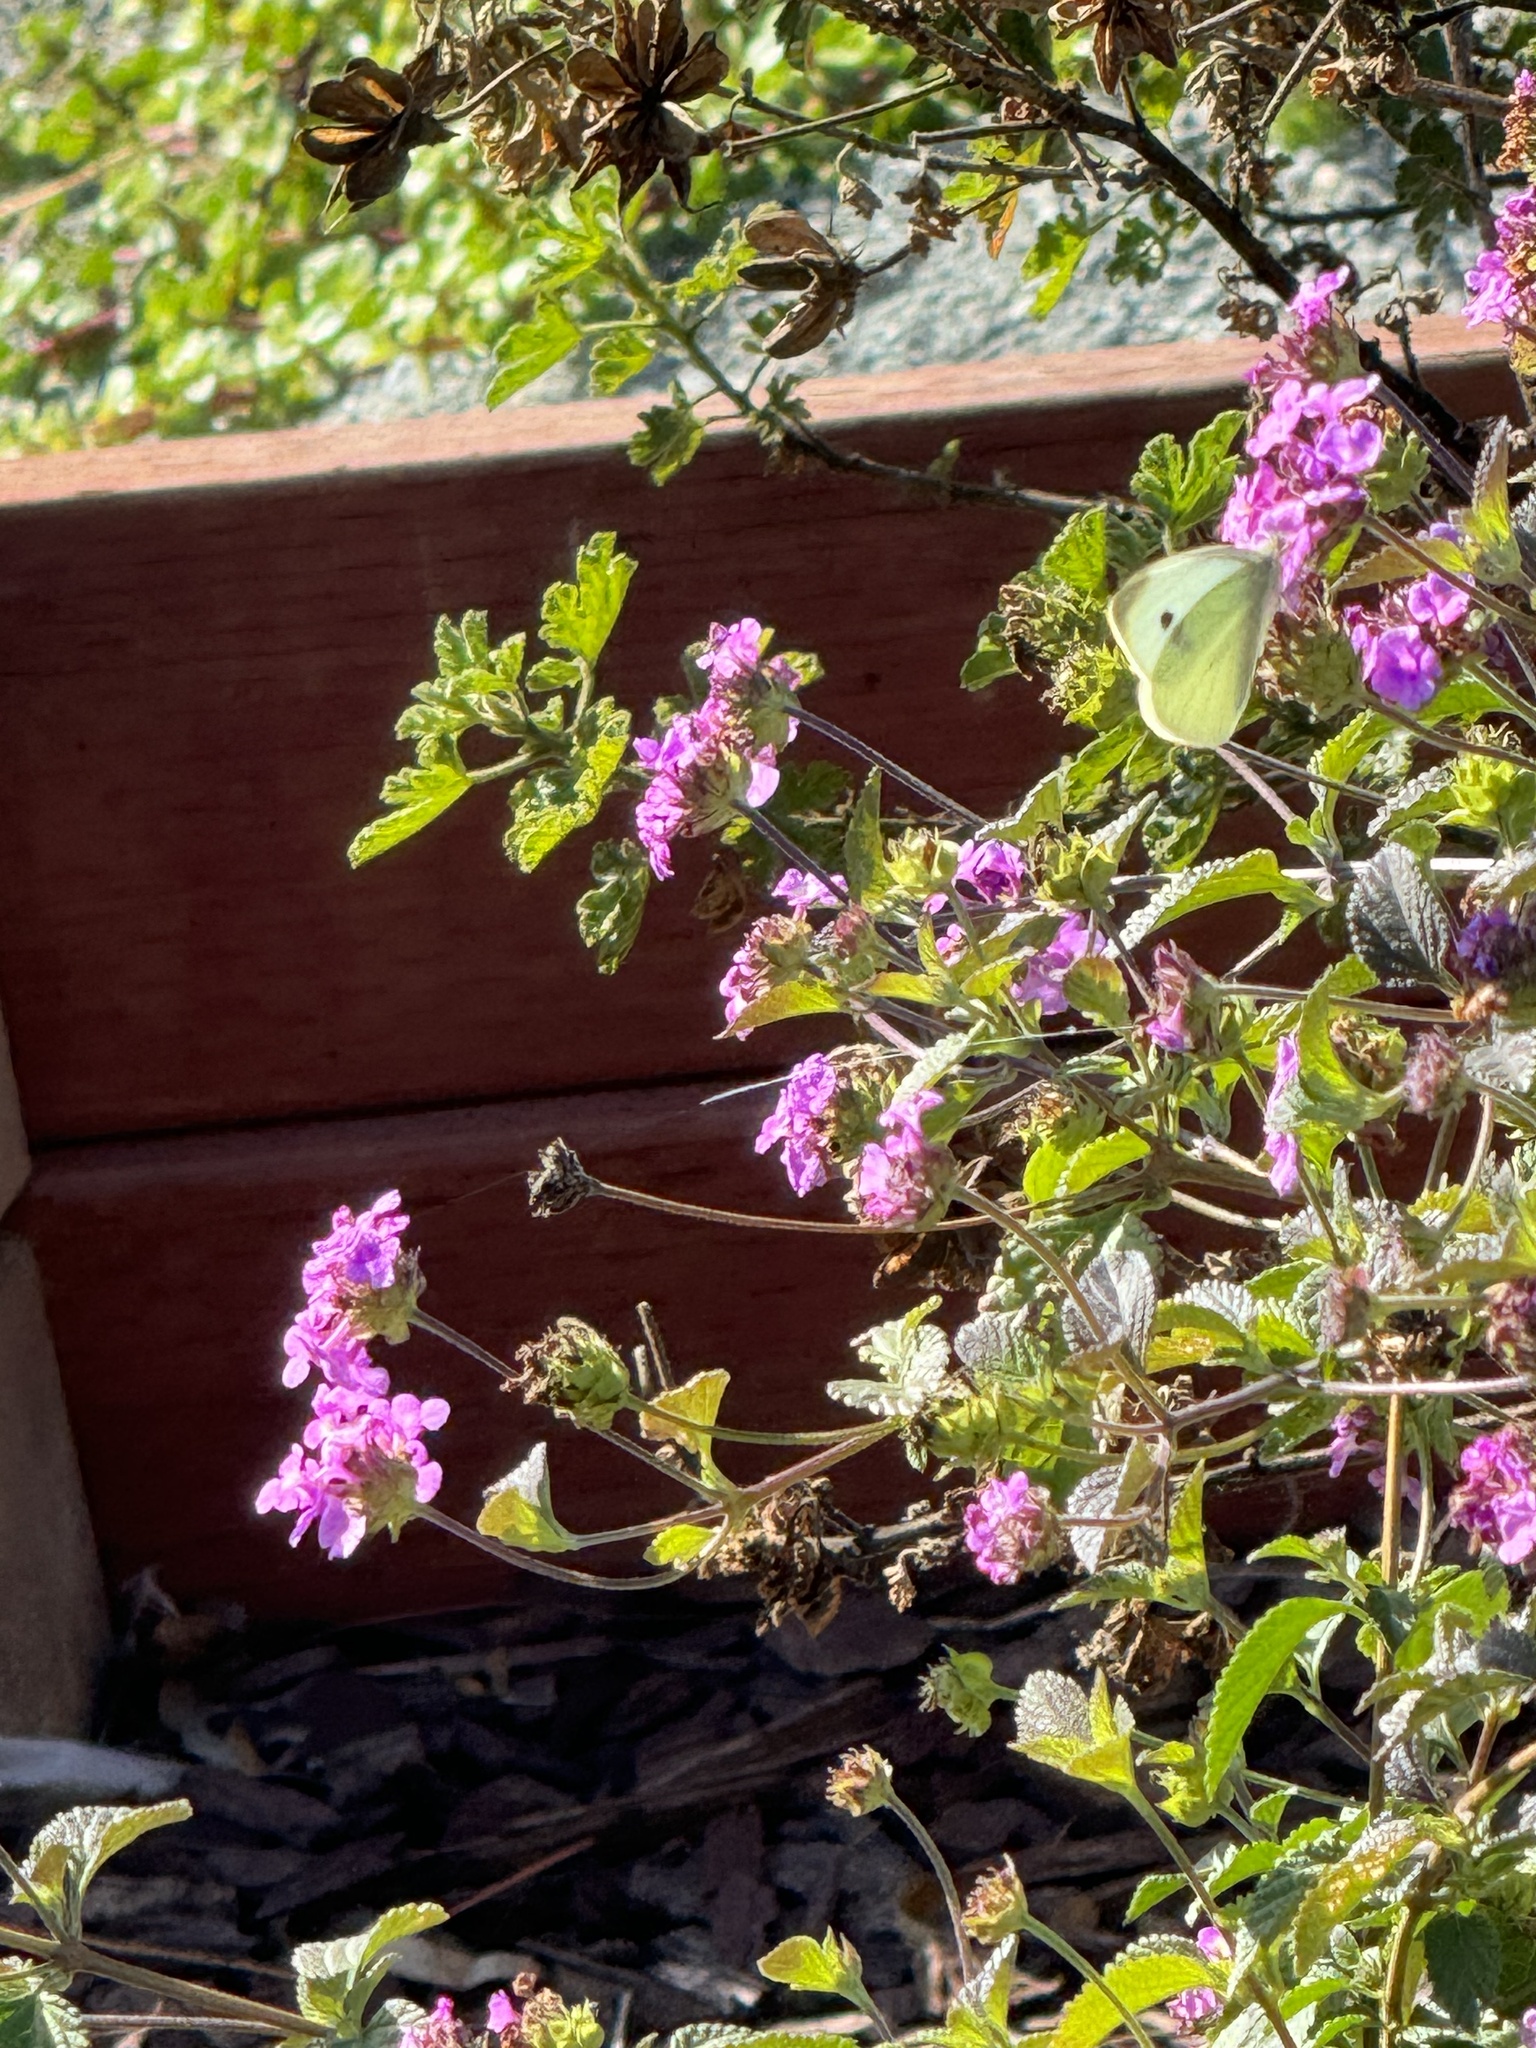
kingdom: Animalia
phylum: Arthropoda
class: Insecta
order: Lepidoptera
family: Pieridae
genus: Pieris
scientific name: Pieris rapae
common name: Small white
